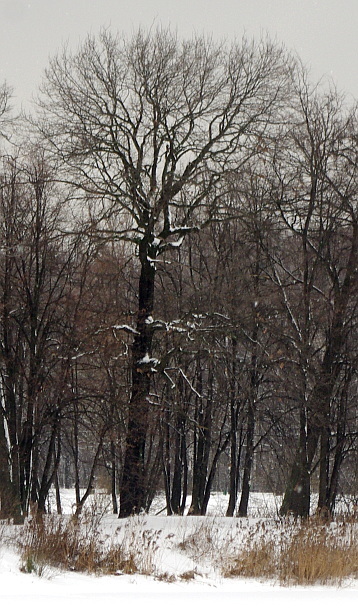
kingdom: Plantae
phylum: Tracheophyta
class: Magnoliopsida
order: Fagales
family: Fagaceae
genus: Quercus
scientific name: Quercus robur
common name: Pedunculate oak
